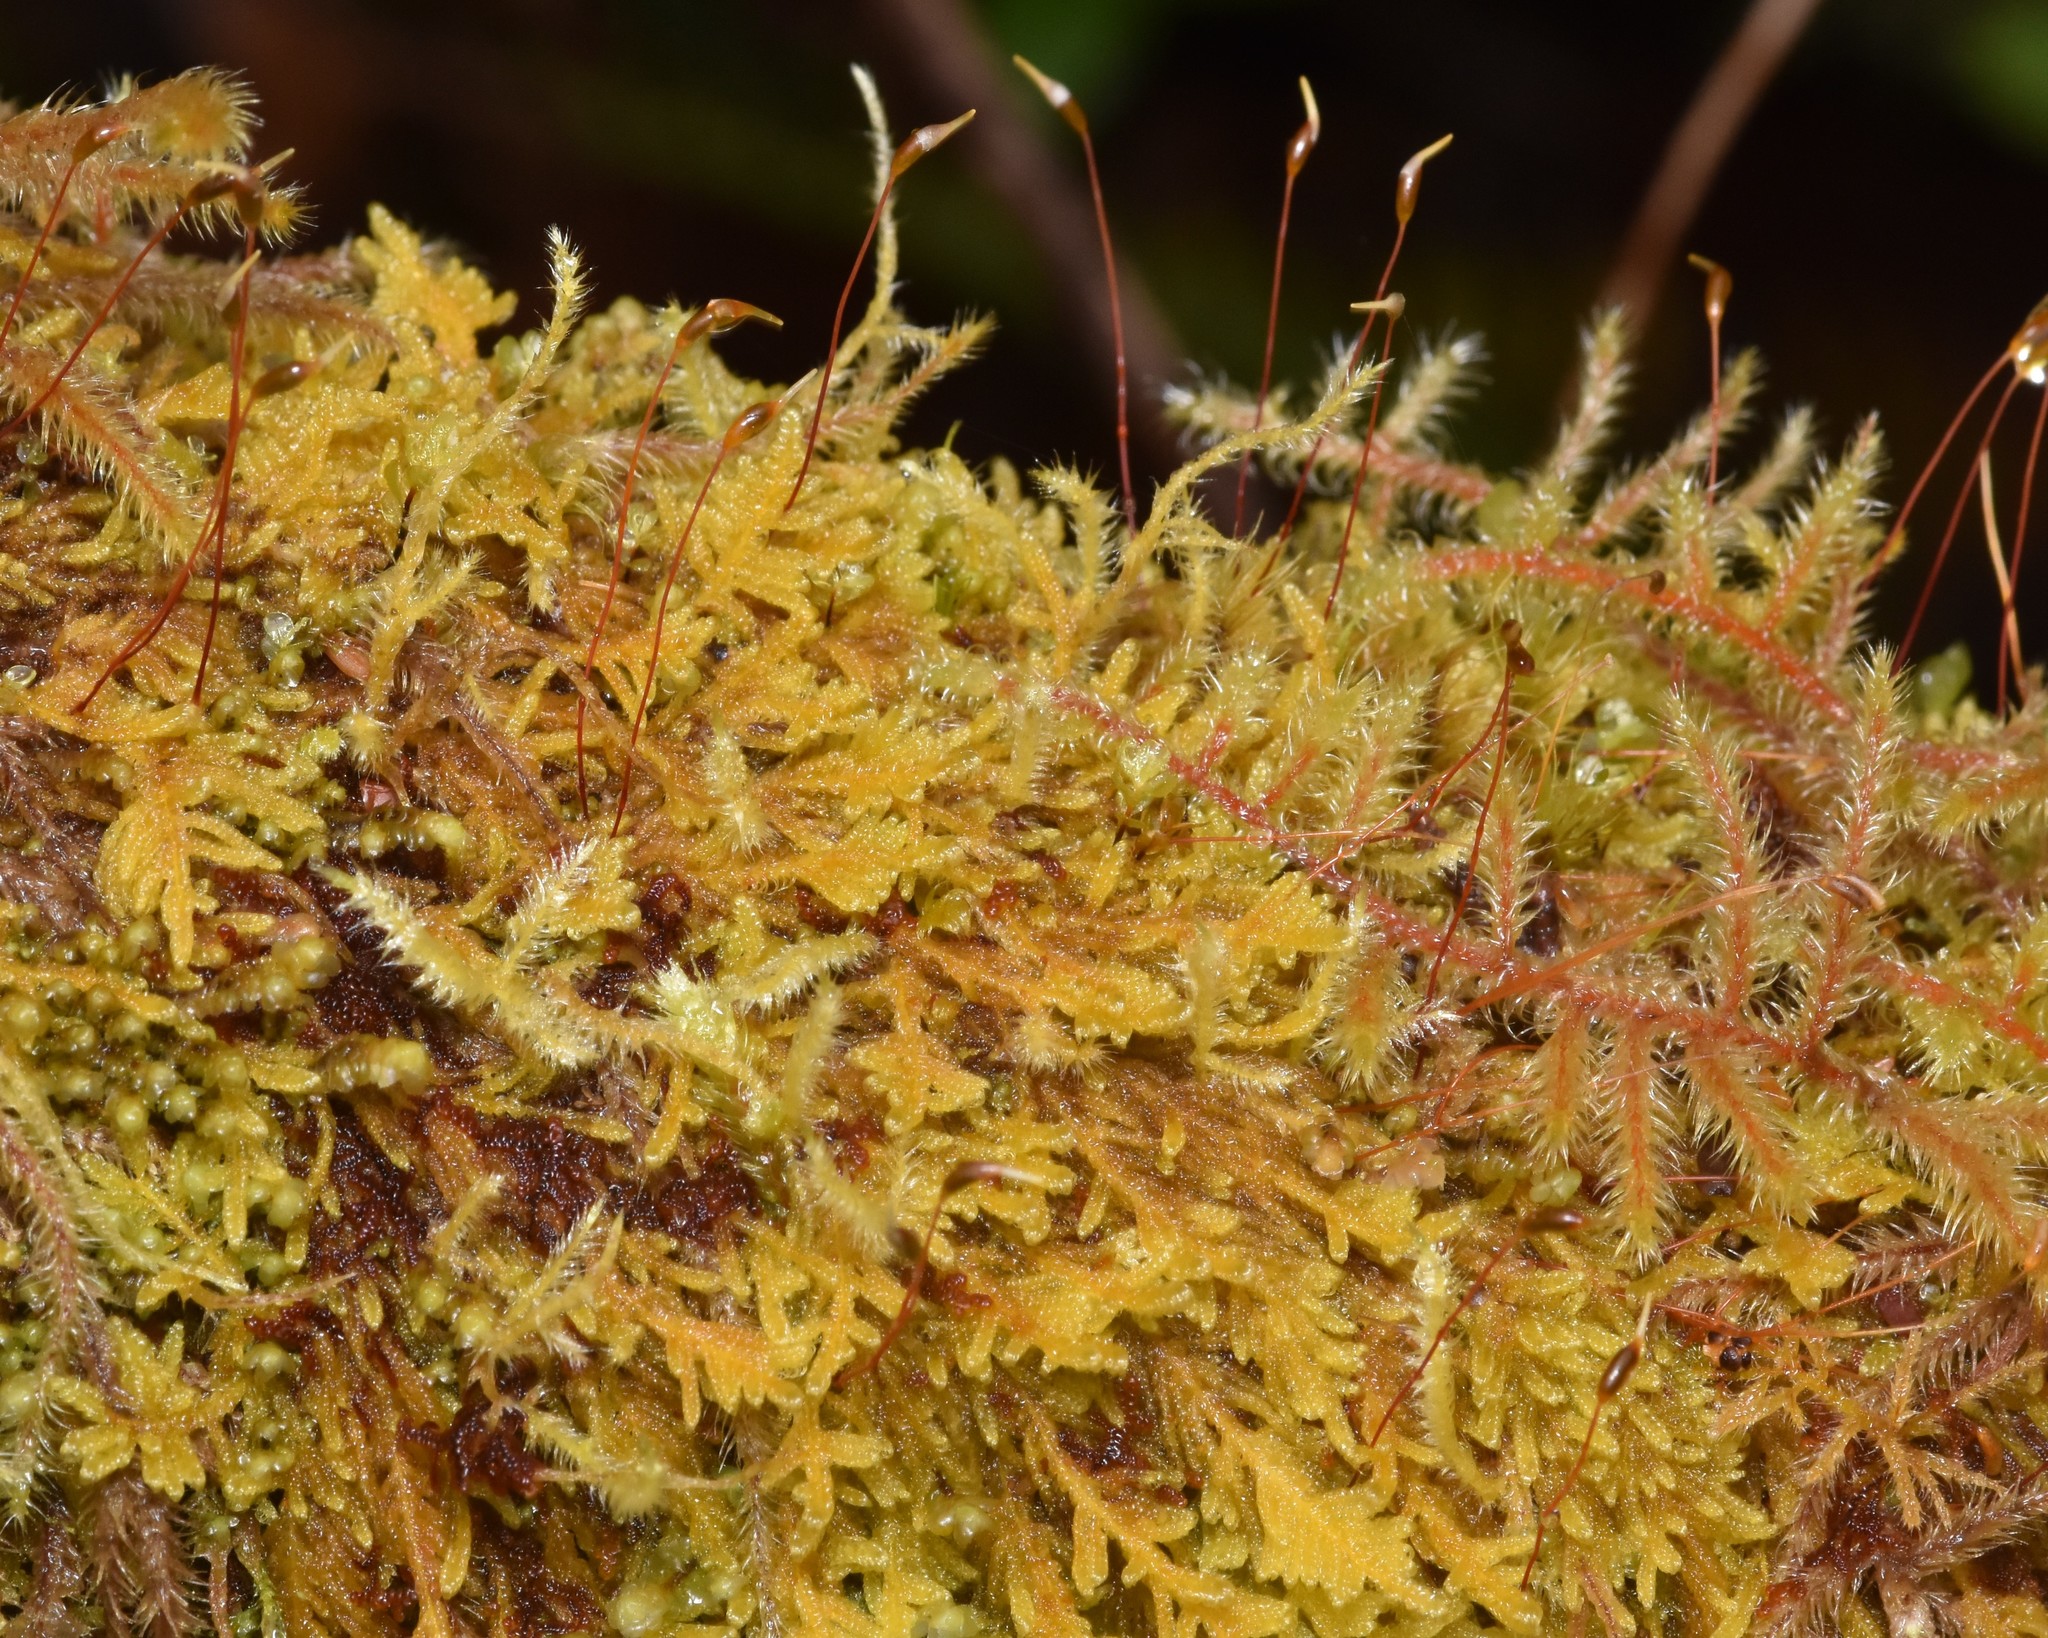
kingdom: Plantae
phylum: Bryophyta
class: Bryopsida
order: Hypnales
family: Stereodontaceae
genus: Stereodon
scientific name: Stereodon subimponens
